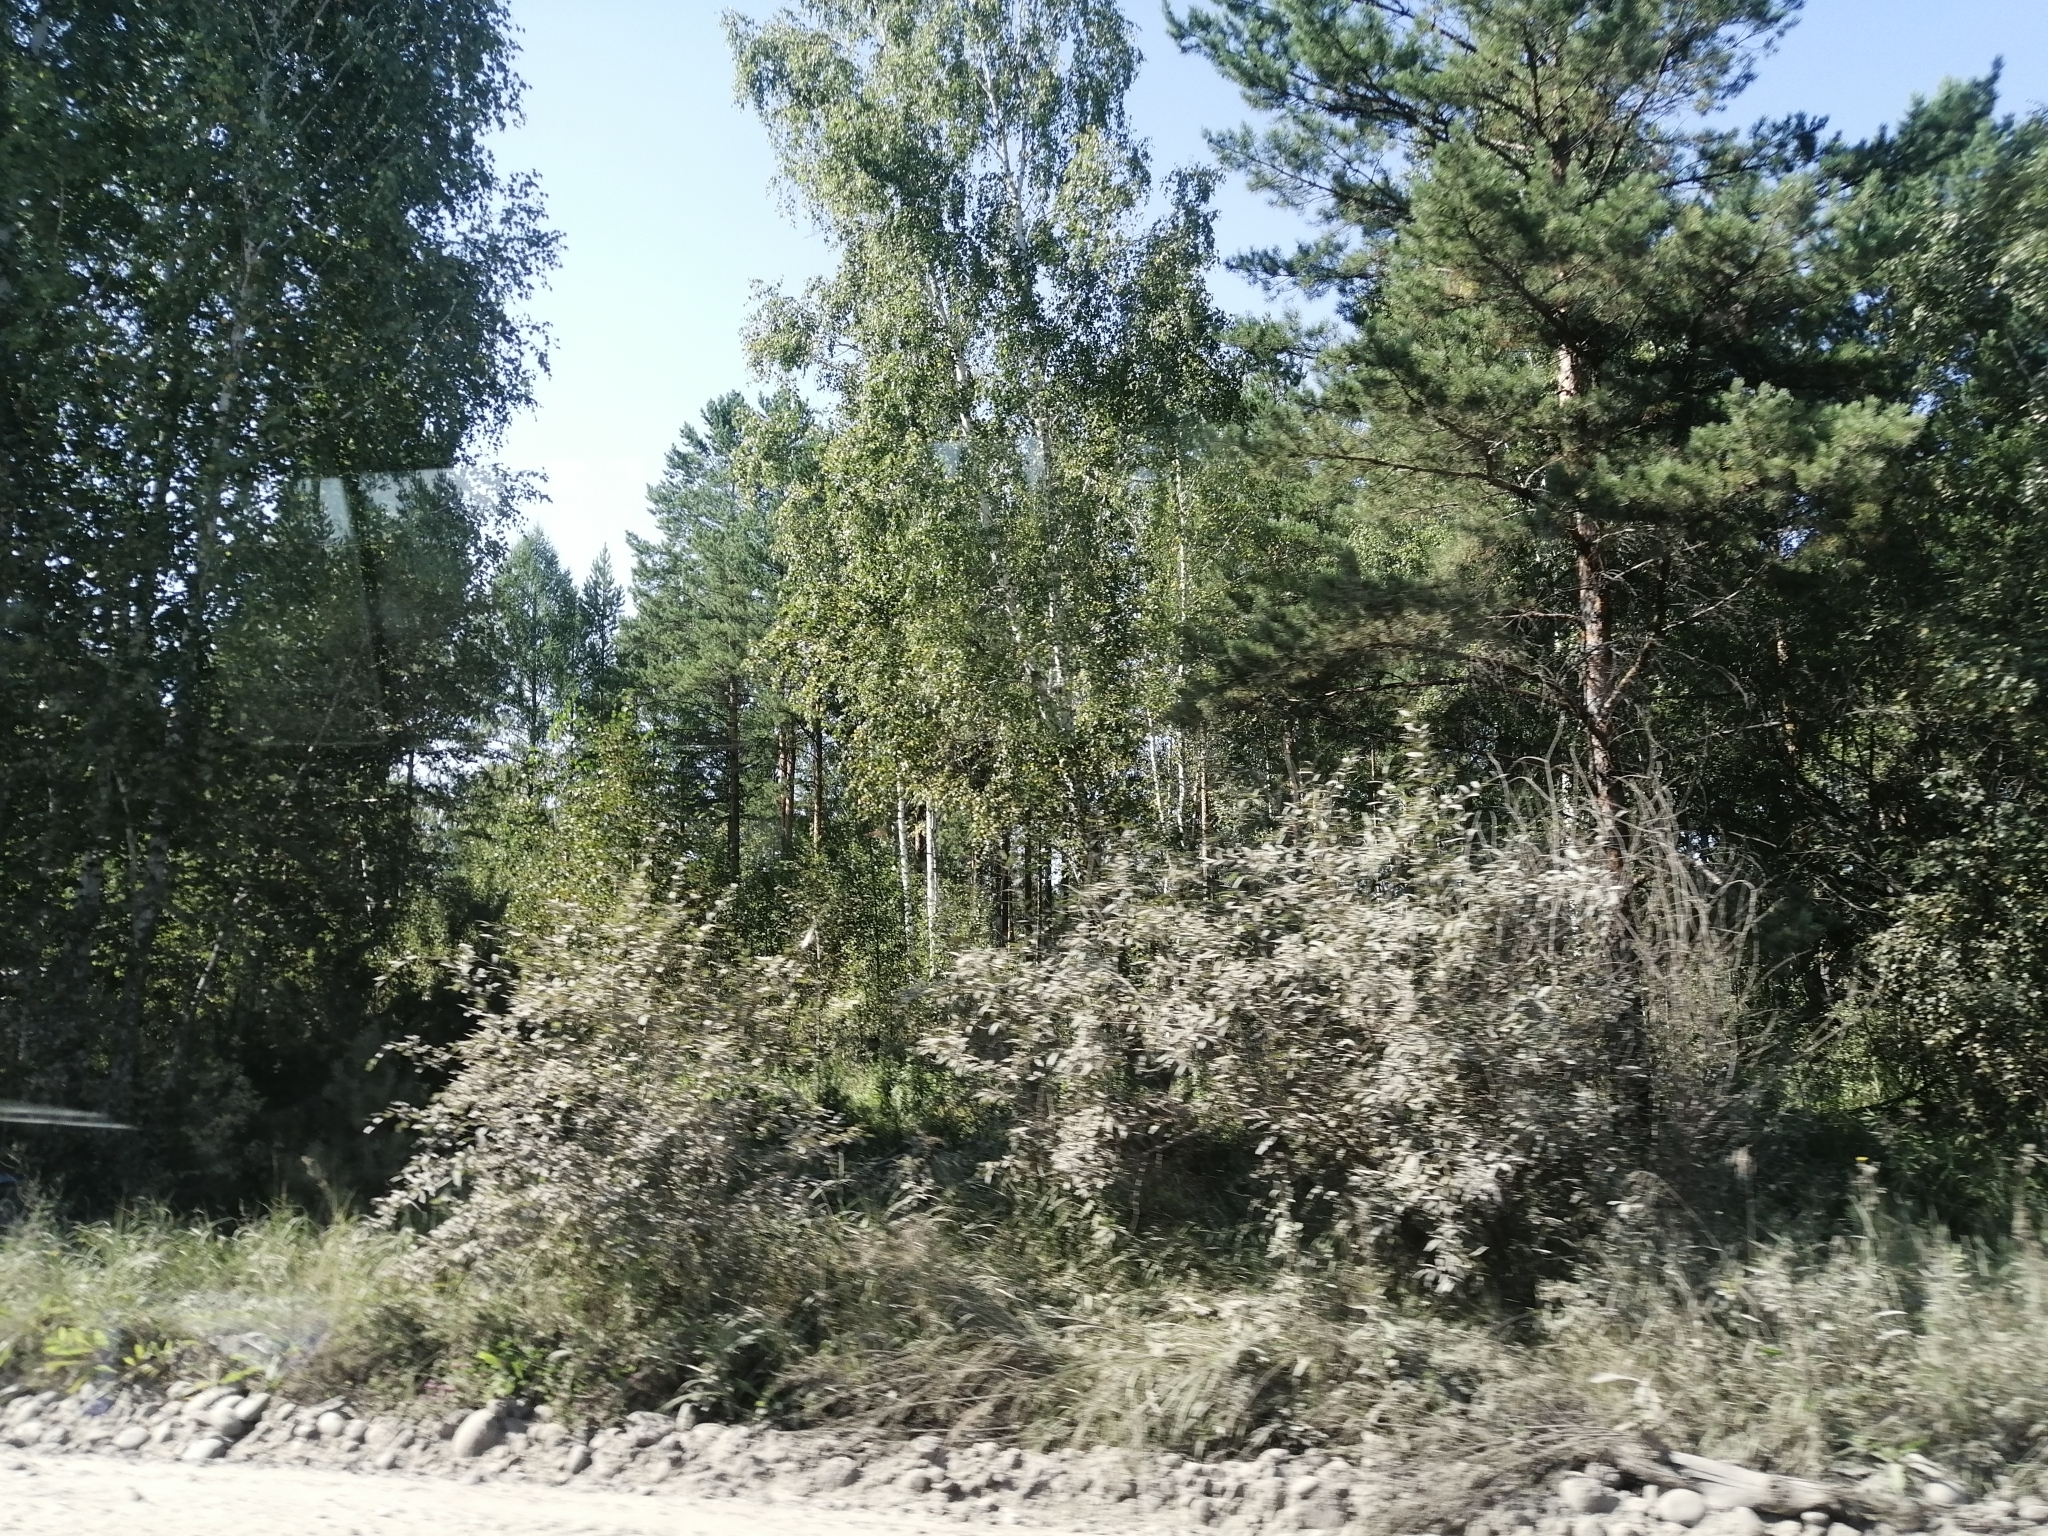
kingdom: Plantae
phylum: Tracheophyta
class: Pinopsida
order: Pinales
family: Pinaceae
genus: Pinus
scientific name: Pinus sylvestris
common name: Scots pine
